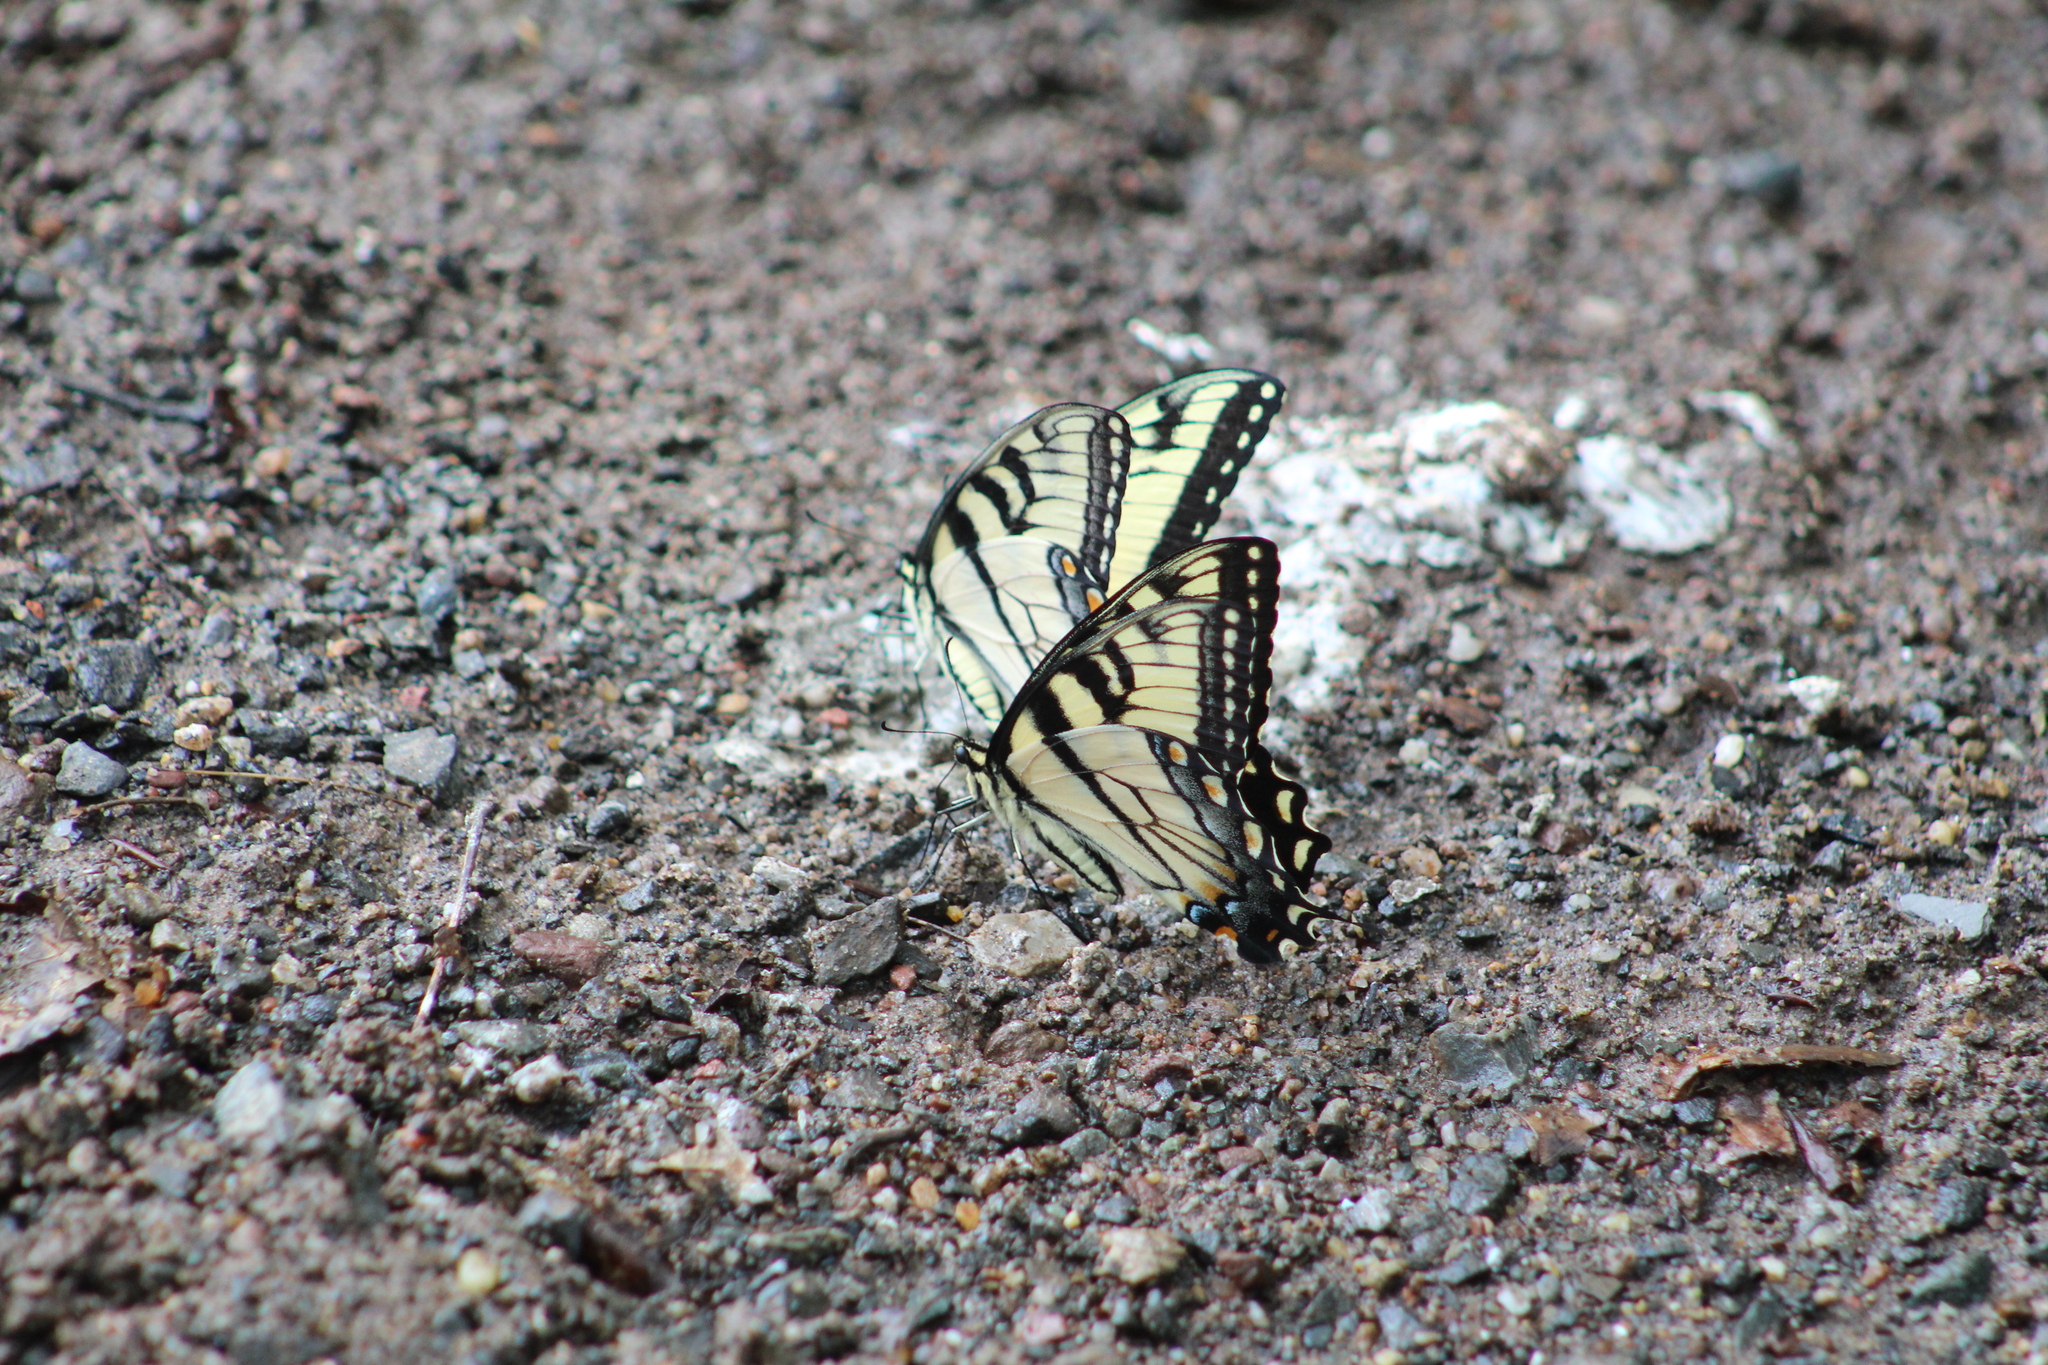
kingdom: Animalia
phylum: Arthropoda
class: Insecta
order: Lepidoptera
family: Papilionidae
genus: Papilio
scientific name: Papilio glaucus
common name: Tiger swallowtail
